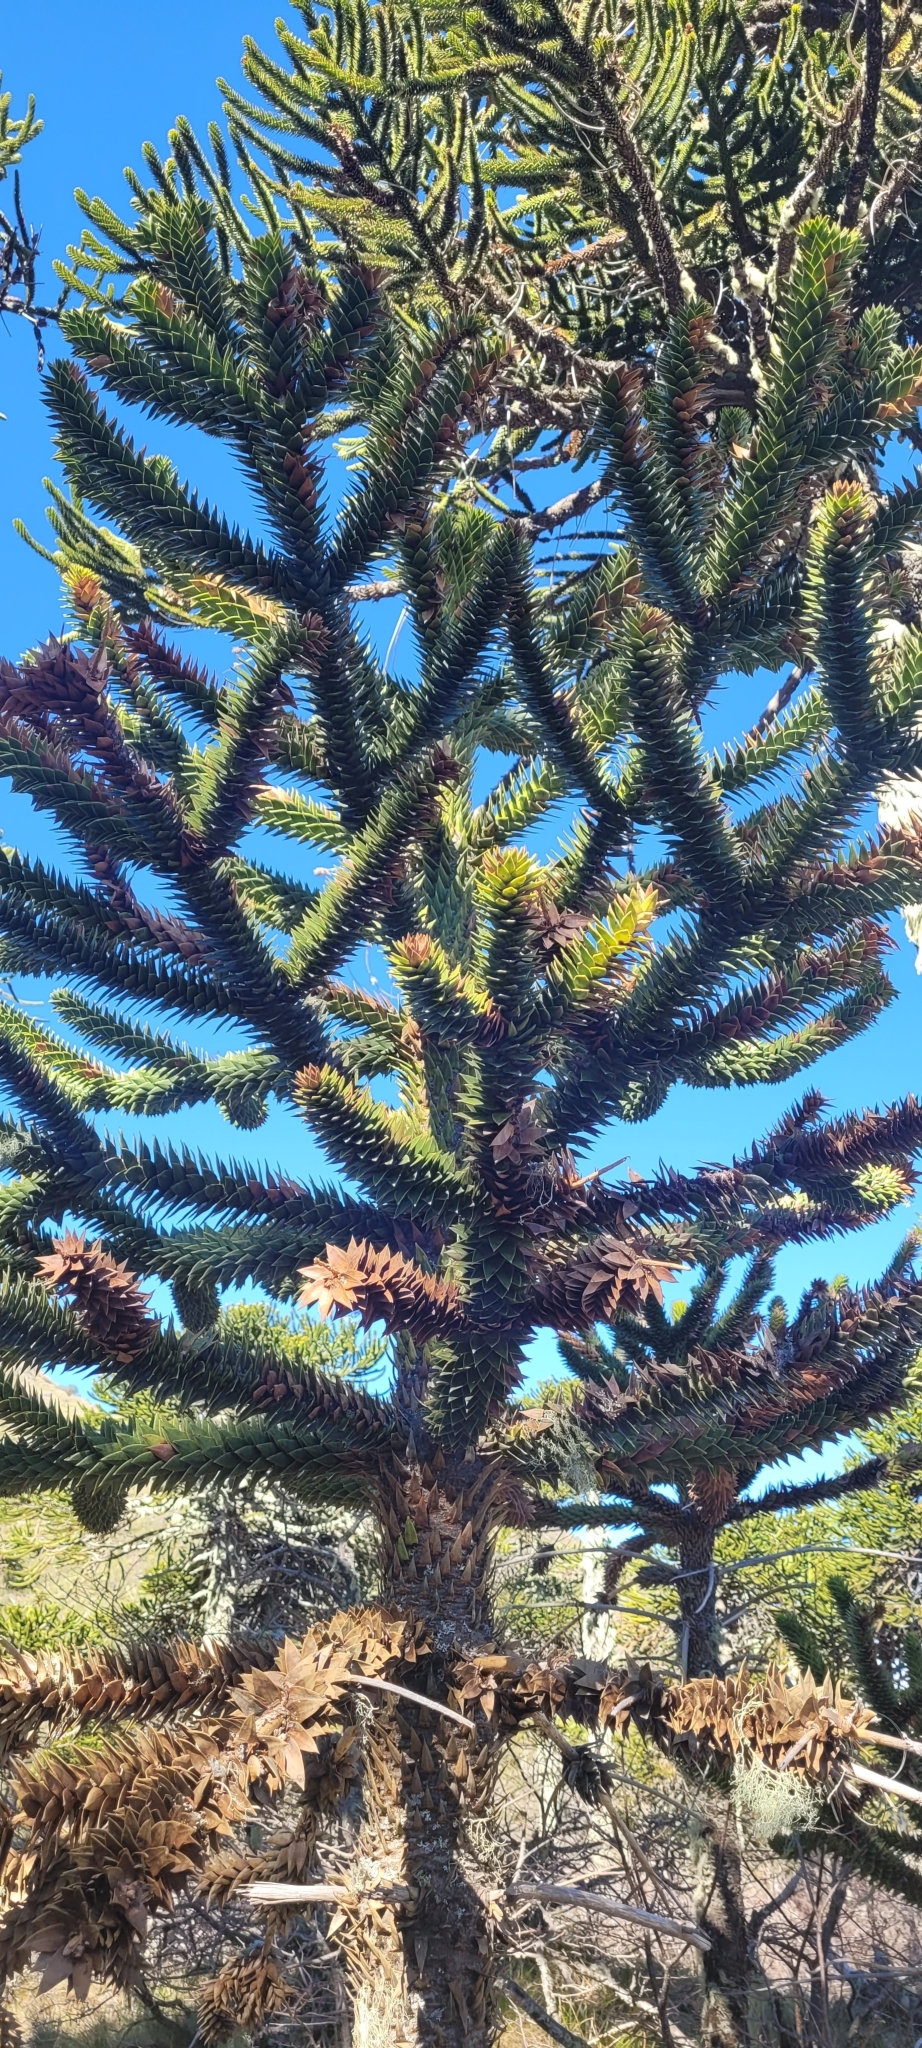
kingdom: Plantae
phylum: Tracheophyta
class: Pinopsida
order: Pinales
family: Araucariaceae
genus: Araucaria
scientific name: Araucaria araucana
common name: Monkey-puzzle
